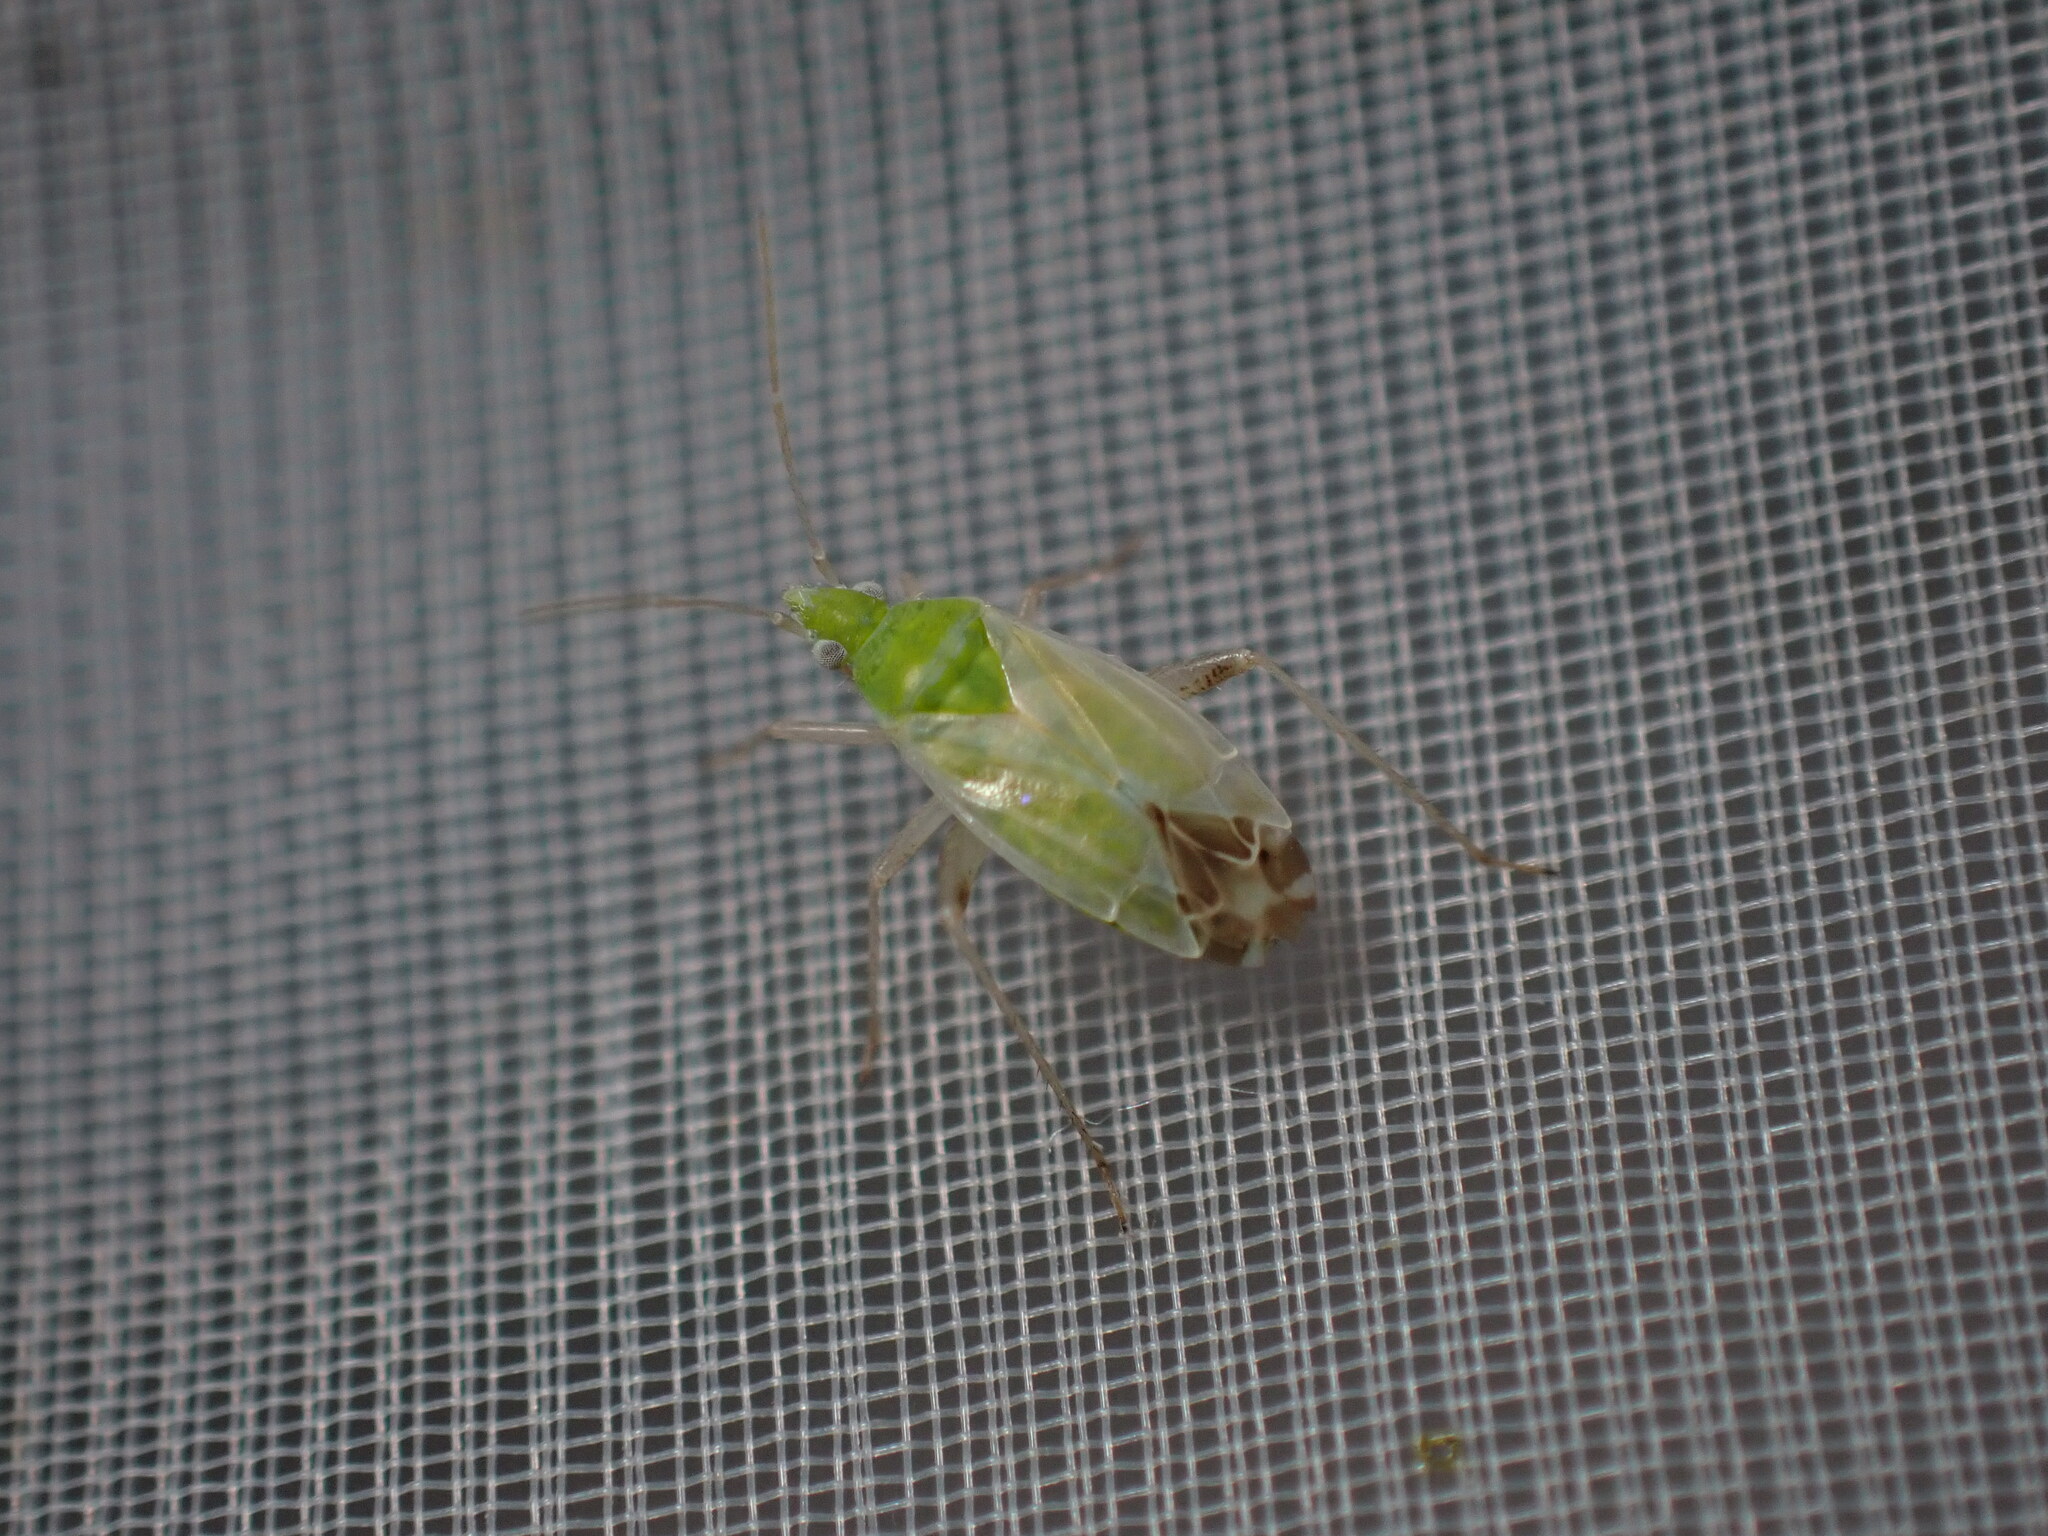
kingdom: Animalia
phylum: Arthropoda
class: Insecta
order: Hemiptera
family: Miridae
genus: Macrotylus
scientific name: Macrotylus horvathi
